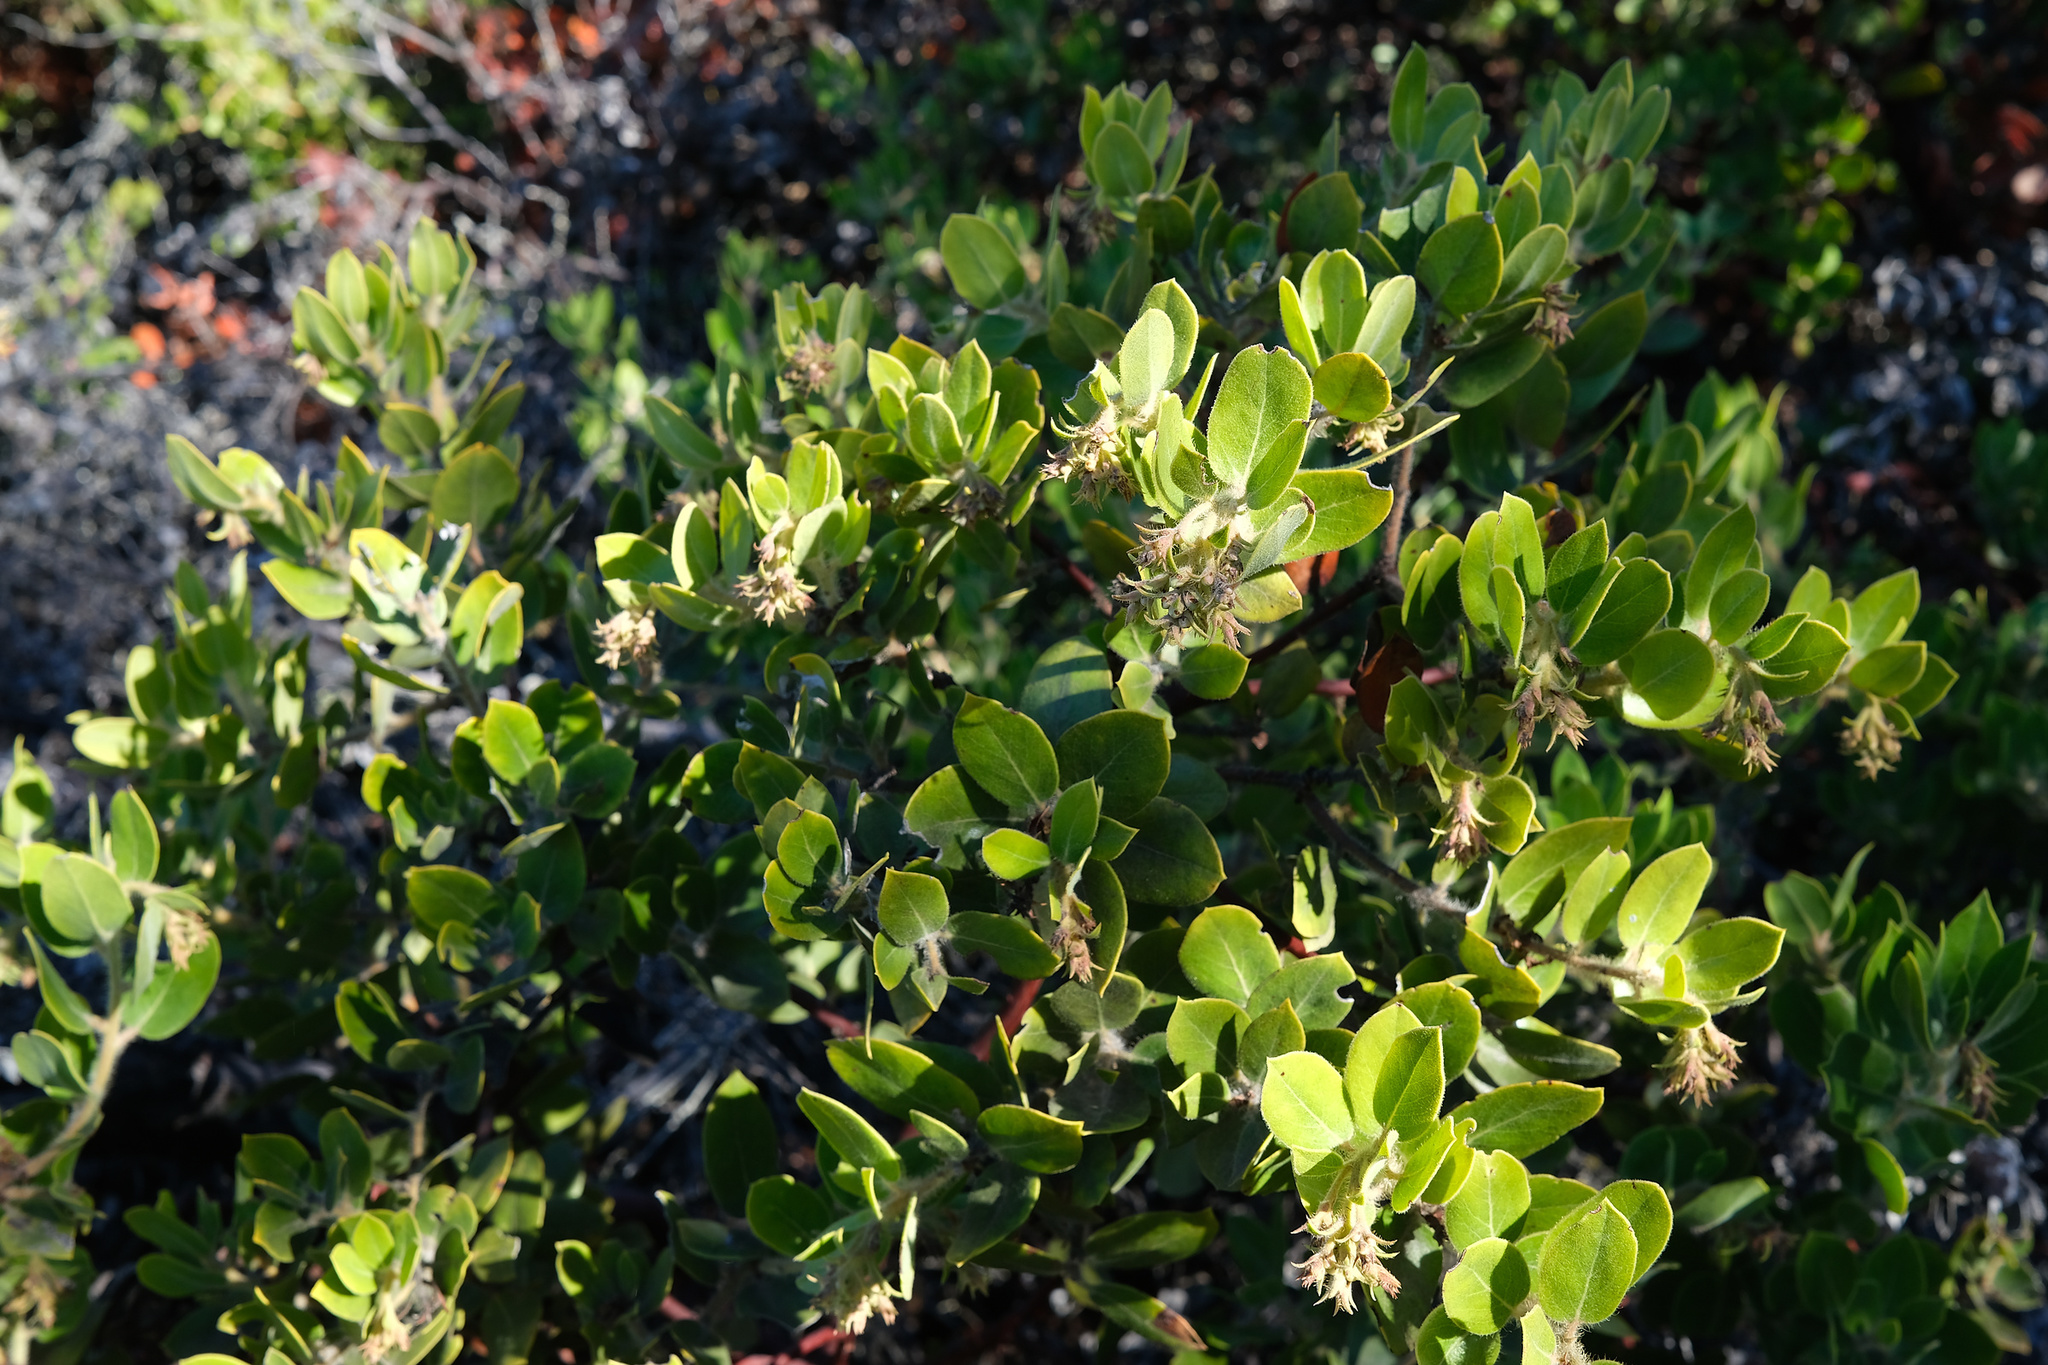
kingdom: Plantae
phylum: Tracheophyta
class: Magnoliopsida
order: Ericales
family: Ericaceae
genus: Arctostaphylos
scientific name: Arctostaphylos crustacea
